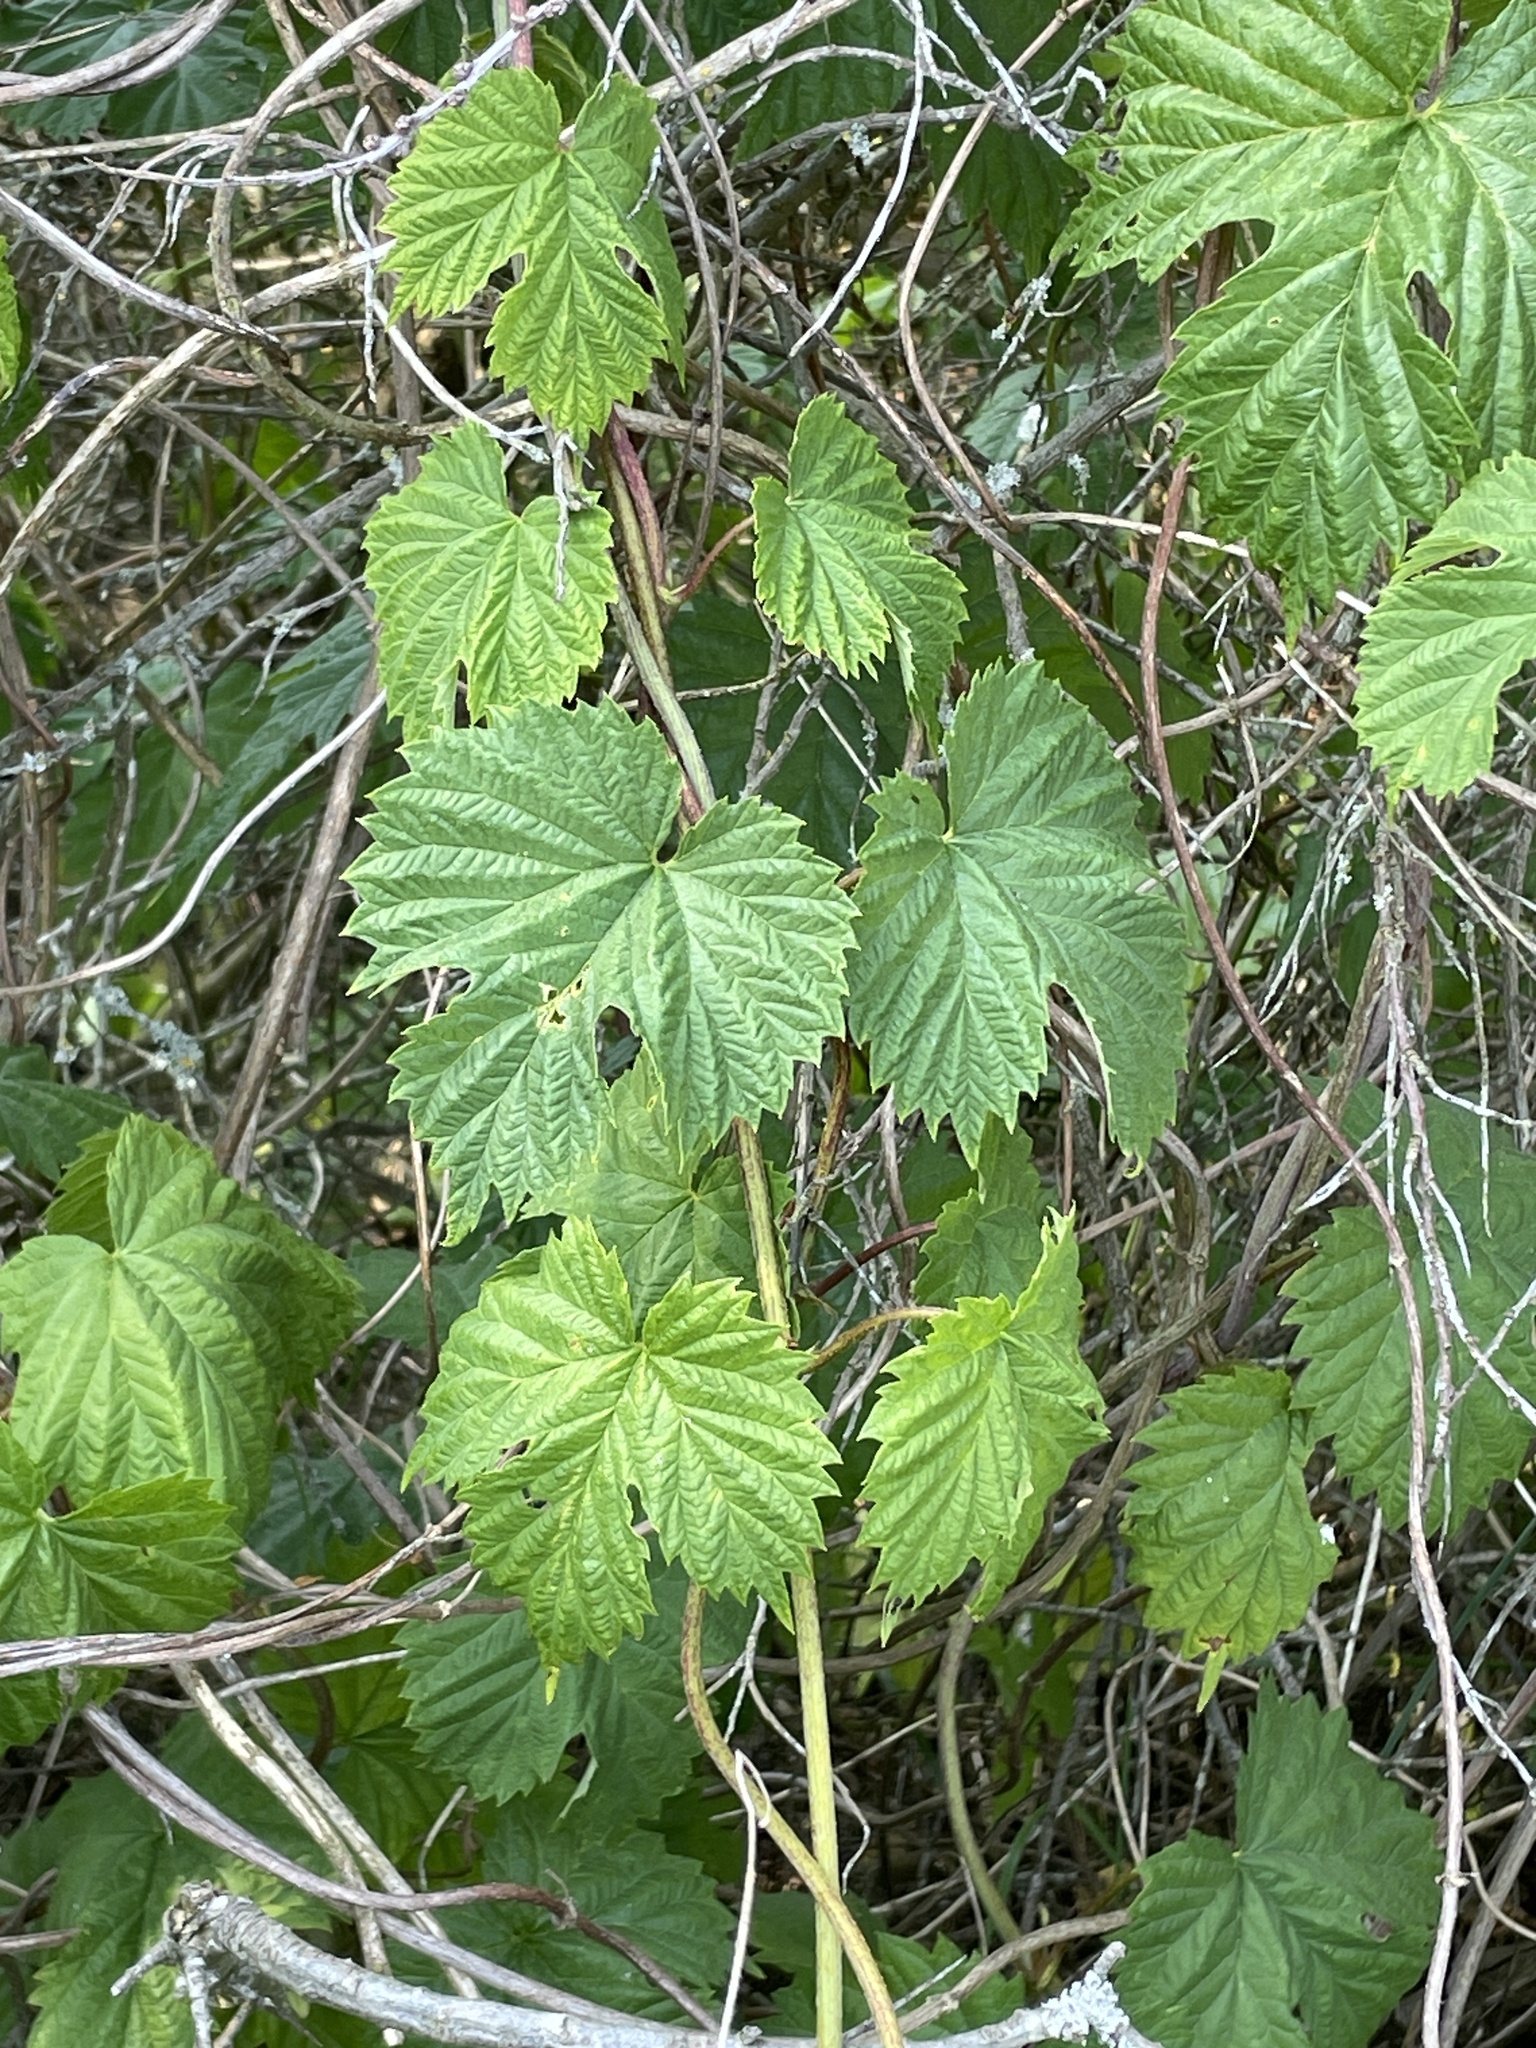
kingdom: Plantae
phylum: Tracheophyta
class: Magnoliopsida
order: Rosales
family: Cannabaceae
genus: Humulus
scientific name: Humulus lupulus
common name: Hop
